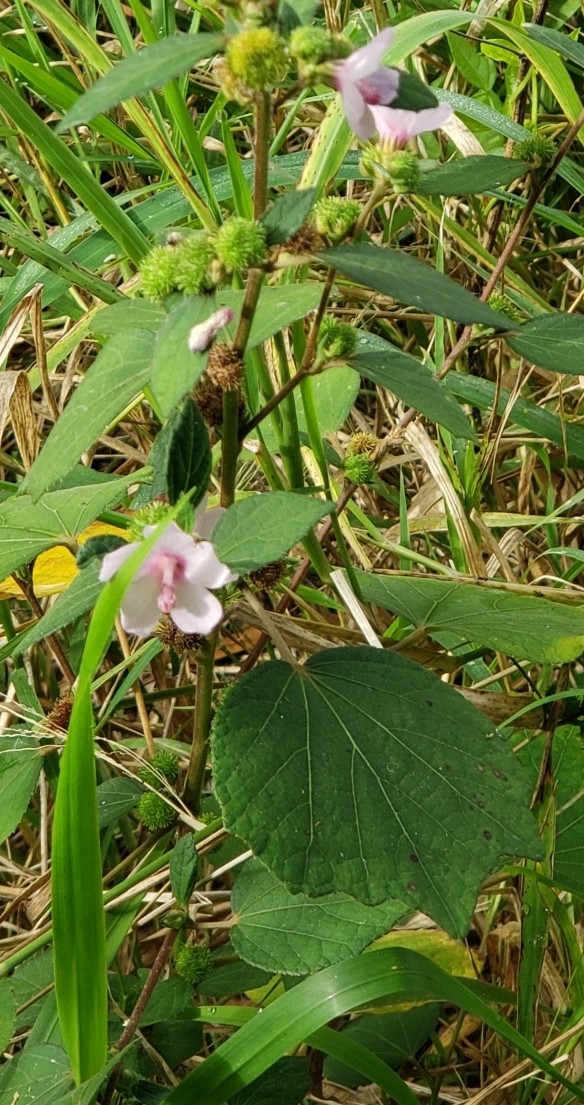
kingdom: Plantae
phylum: Tracheophyta
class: Magnoliopsida
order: Malvales
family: Malvaceae
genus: Urena
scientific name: Urena lobata
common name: Caesarweed
